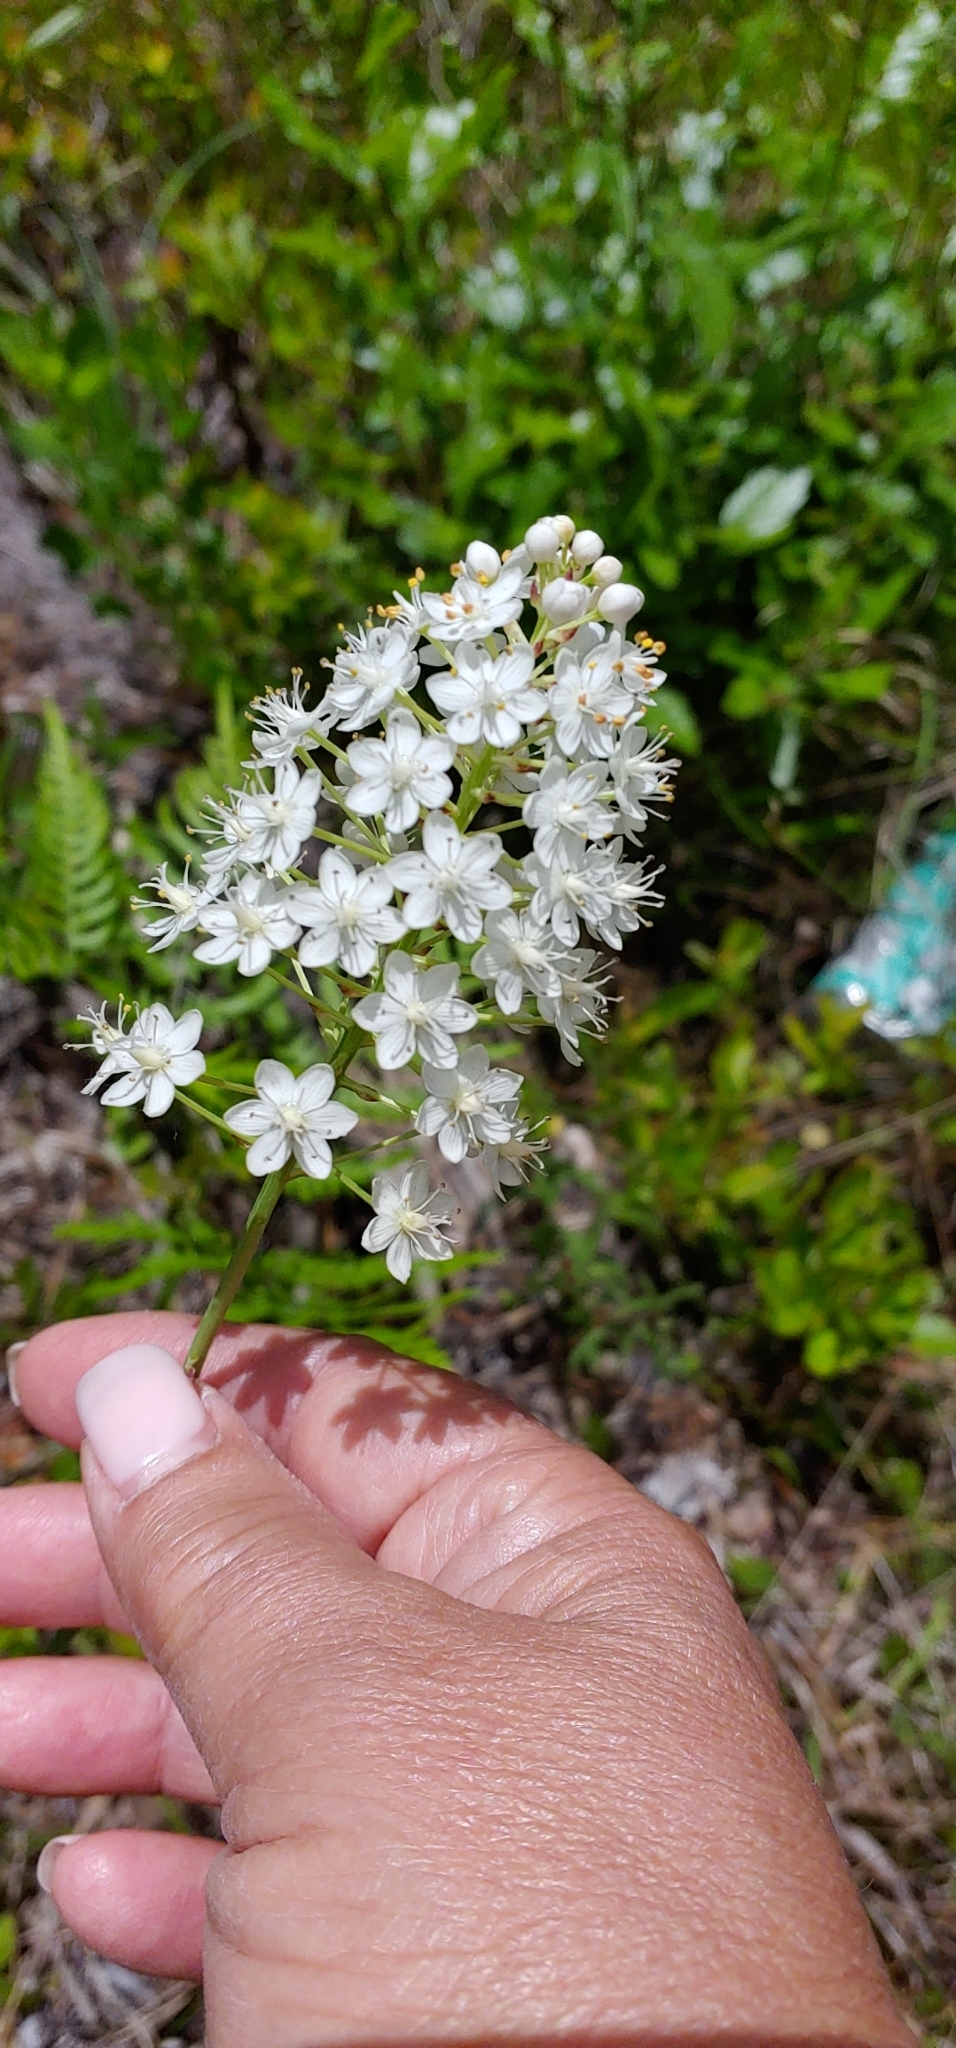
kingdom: Plantae
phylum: Tracheophyta
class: Liliopsida
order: Liliales
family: Melanthiaceae
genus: Stenanthium
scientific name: Stenanthium densum
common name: Crow-poison
